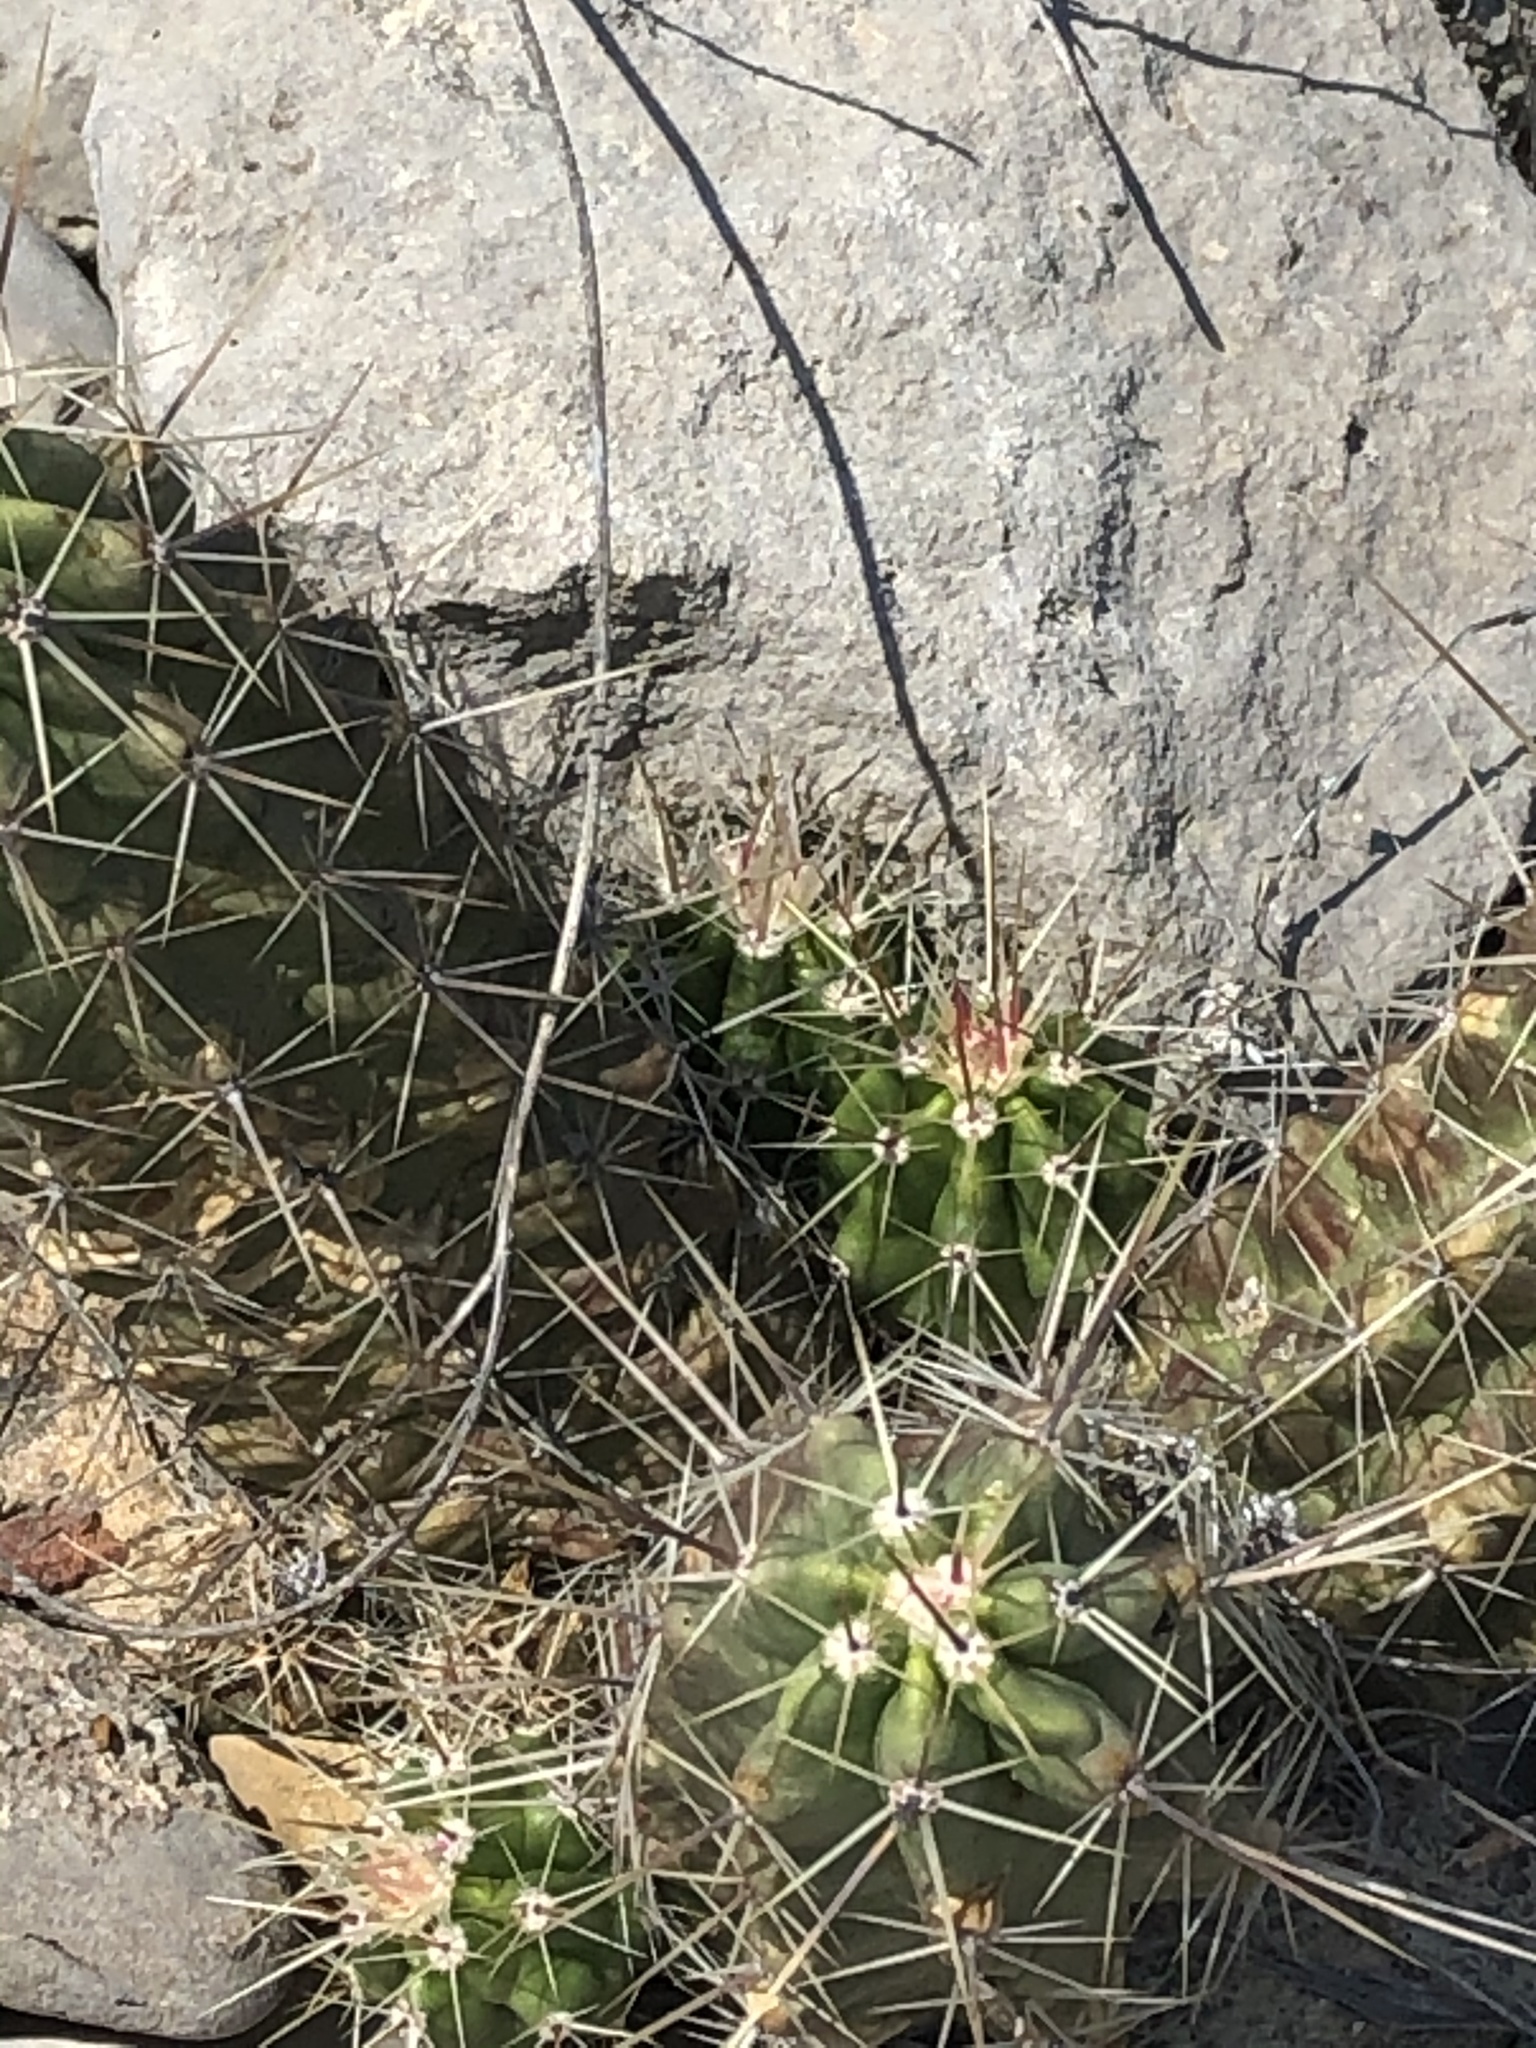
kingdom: Plantae
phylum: Tracheophyta
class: Magnoliopsida
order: Caryophyllales
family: Cactaceae
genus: Echinocereus
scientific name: Echinocereus enneacanthus
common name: Pitaya
